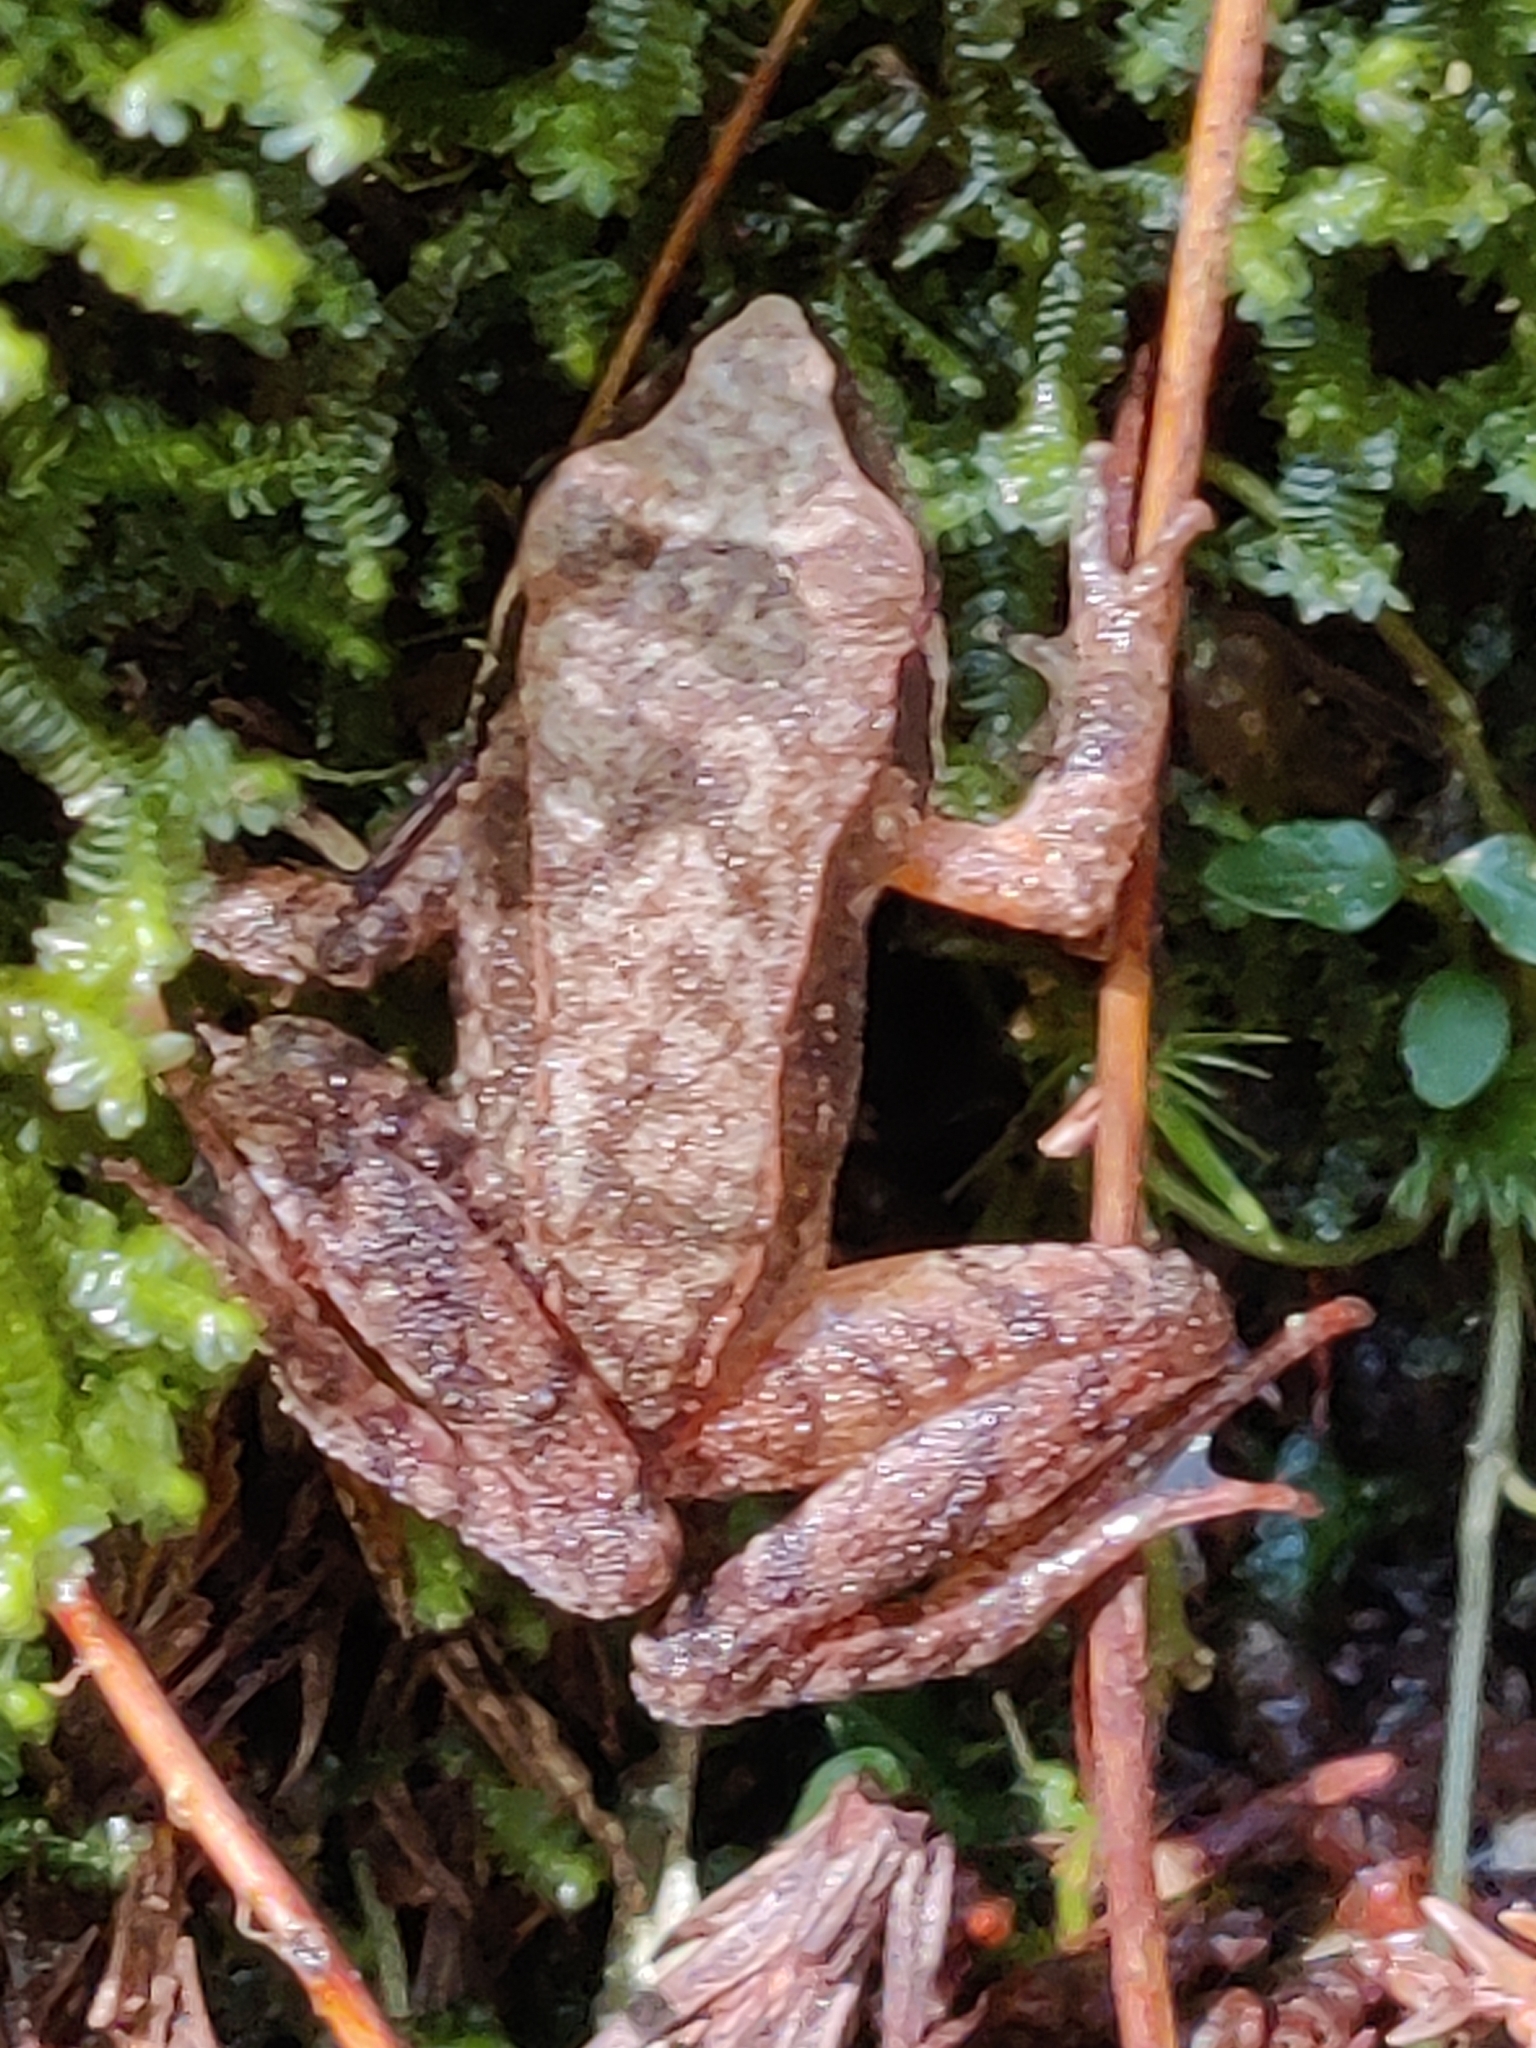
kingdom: Animalia
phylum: Chordata
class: Amphibia
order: Anura
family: Ranidae
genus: Rana
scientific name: Rana japonica
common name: Japanese brown frog
